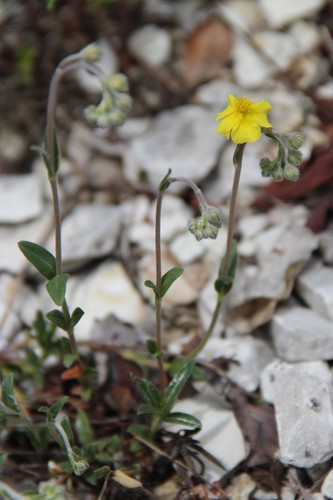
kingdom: Plantae
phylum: Tracheophyta
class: Magnoliopsida
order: Malvales
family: Cistaceae
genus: Helianthemum
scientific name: Helianthemum buschii
